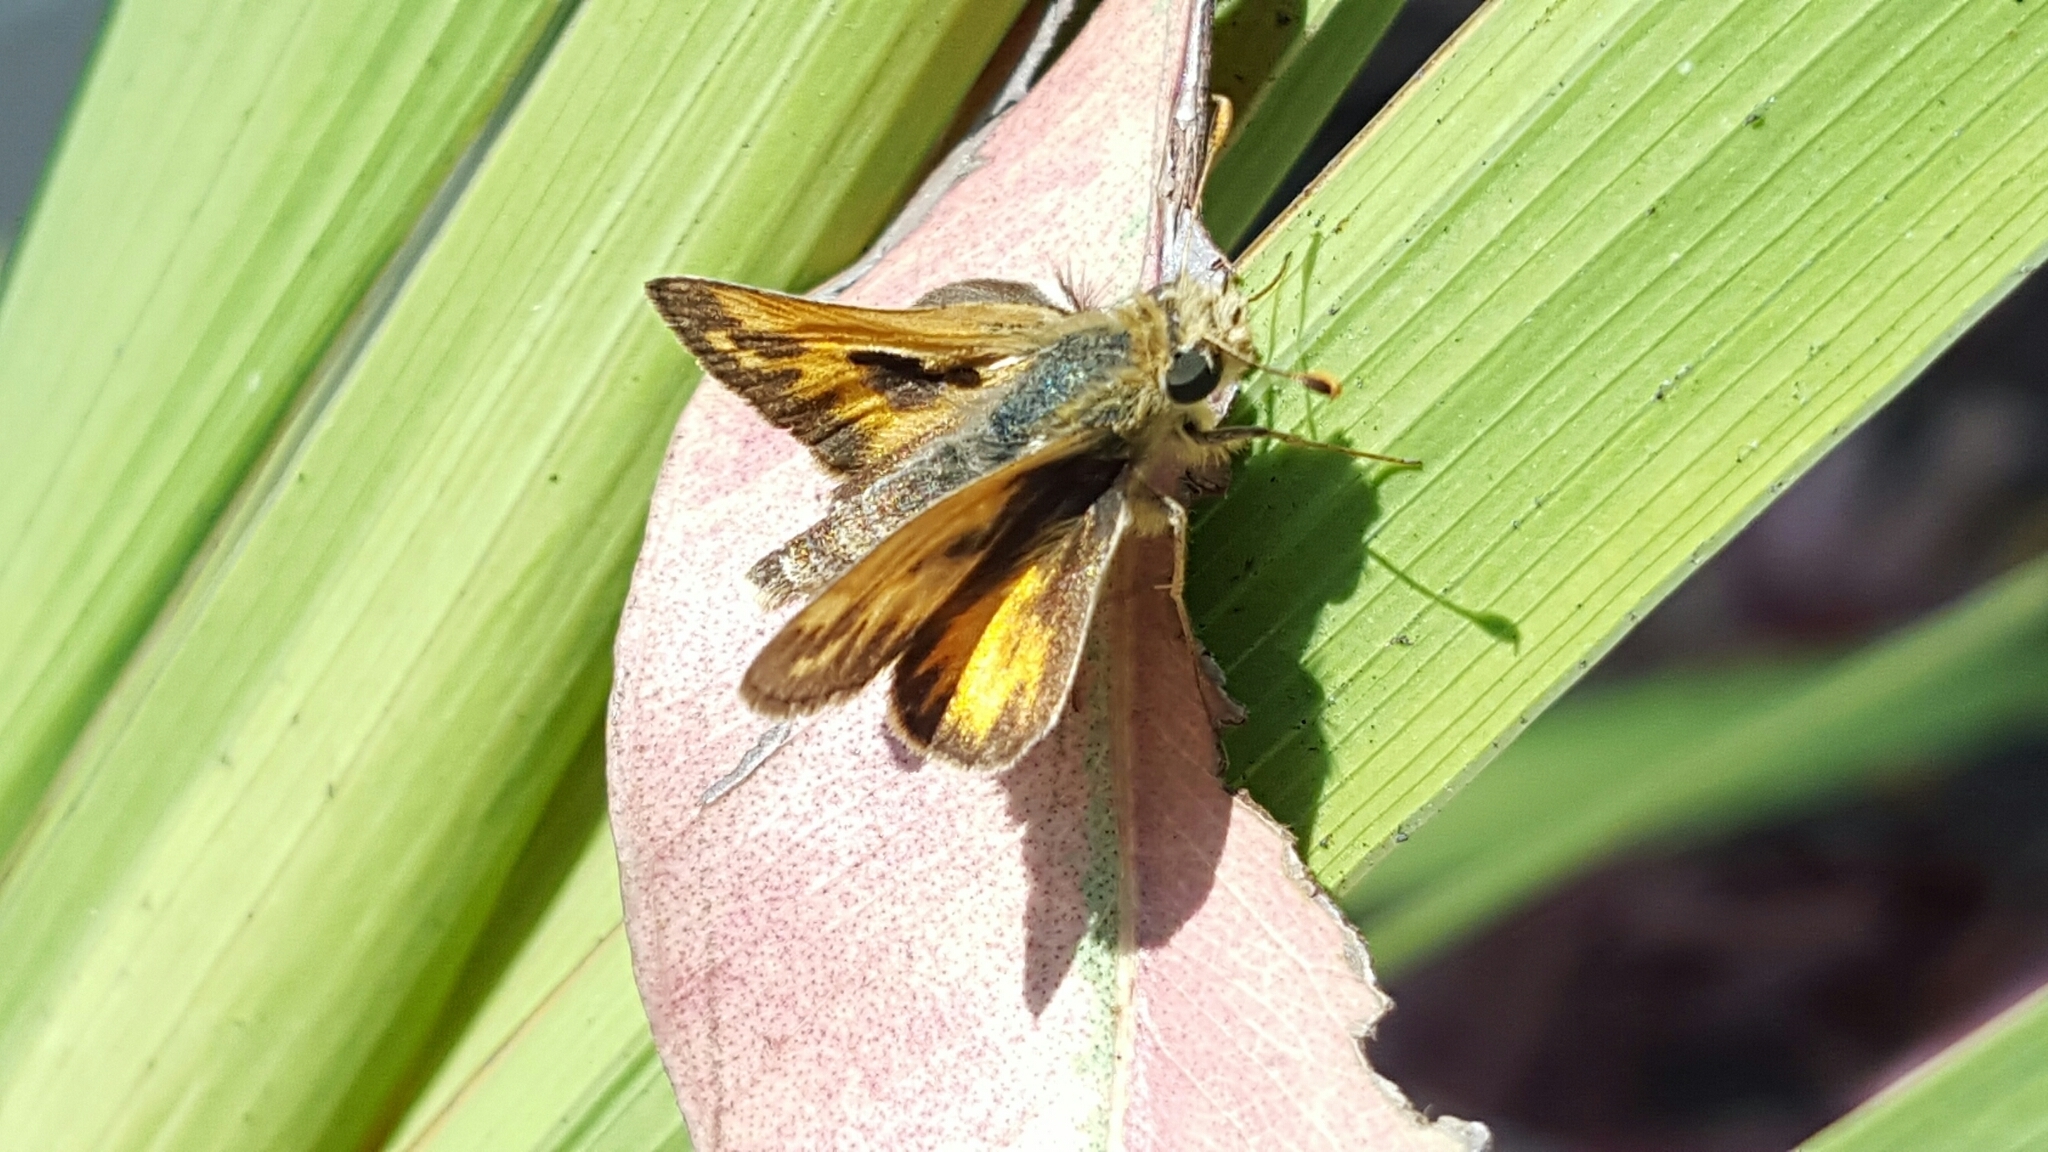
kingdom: Animalia
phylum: Arthropoda
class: Insecta
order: Lepidoptera
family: Hesperiidae
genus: Polites
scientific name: Polites sabuleti
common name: Sandhill skipper
